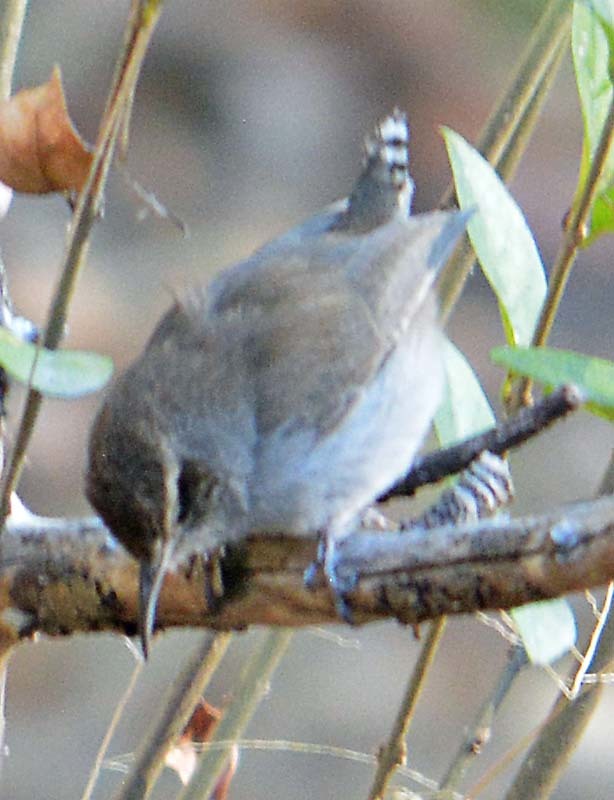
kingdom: Animalia
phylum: Chordata
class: Aves
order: Passeriformes
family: Troglodytidae
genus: Thryomanes
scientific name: Thryomanes bewickii
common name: Bewick's wren
